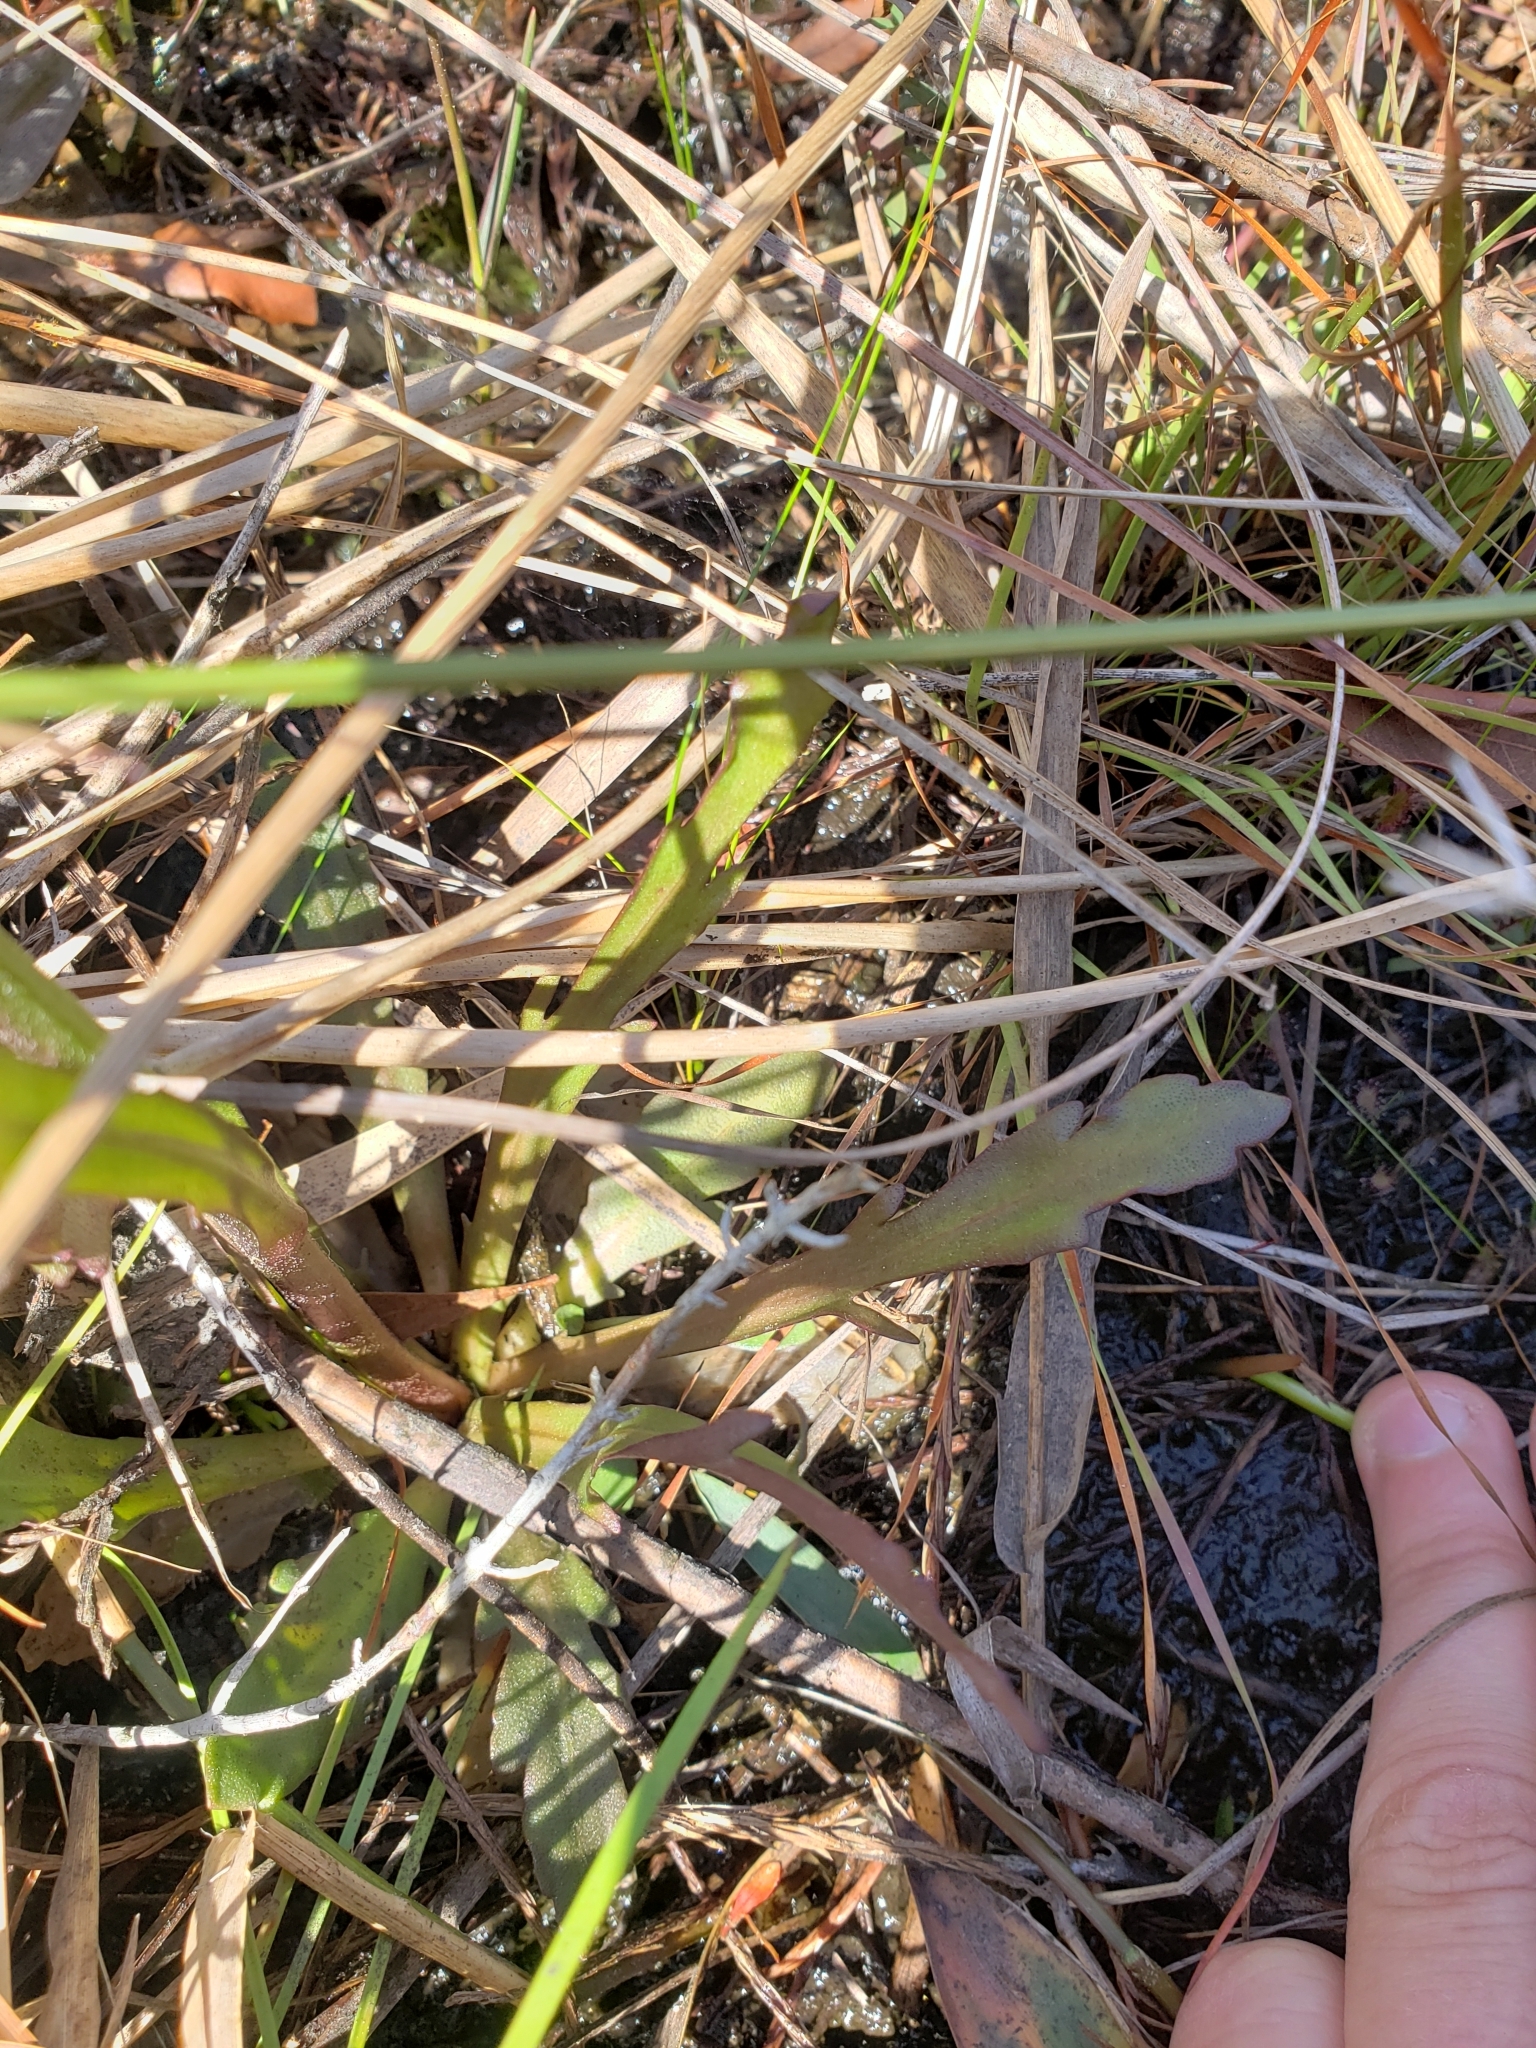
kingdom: Plantae
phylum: Tracheophyta
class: Magnoliopsida
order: Asterales
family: Asteraceae
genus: Helenium
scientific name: Helenium pinnatifidum
